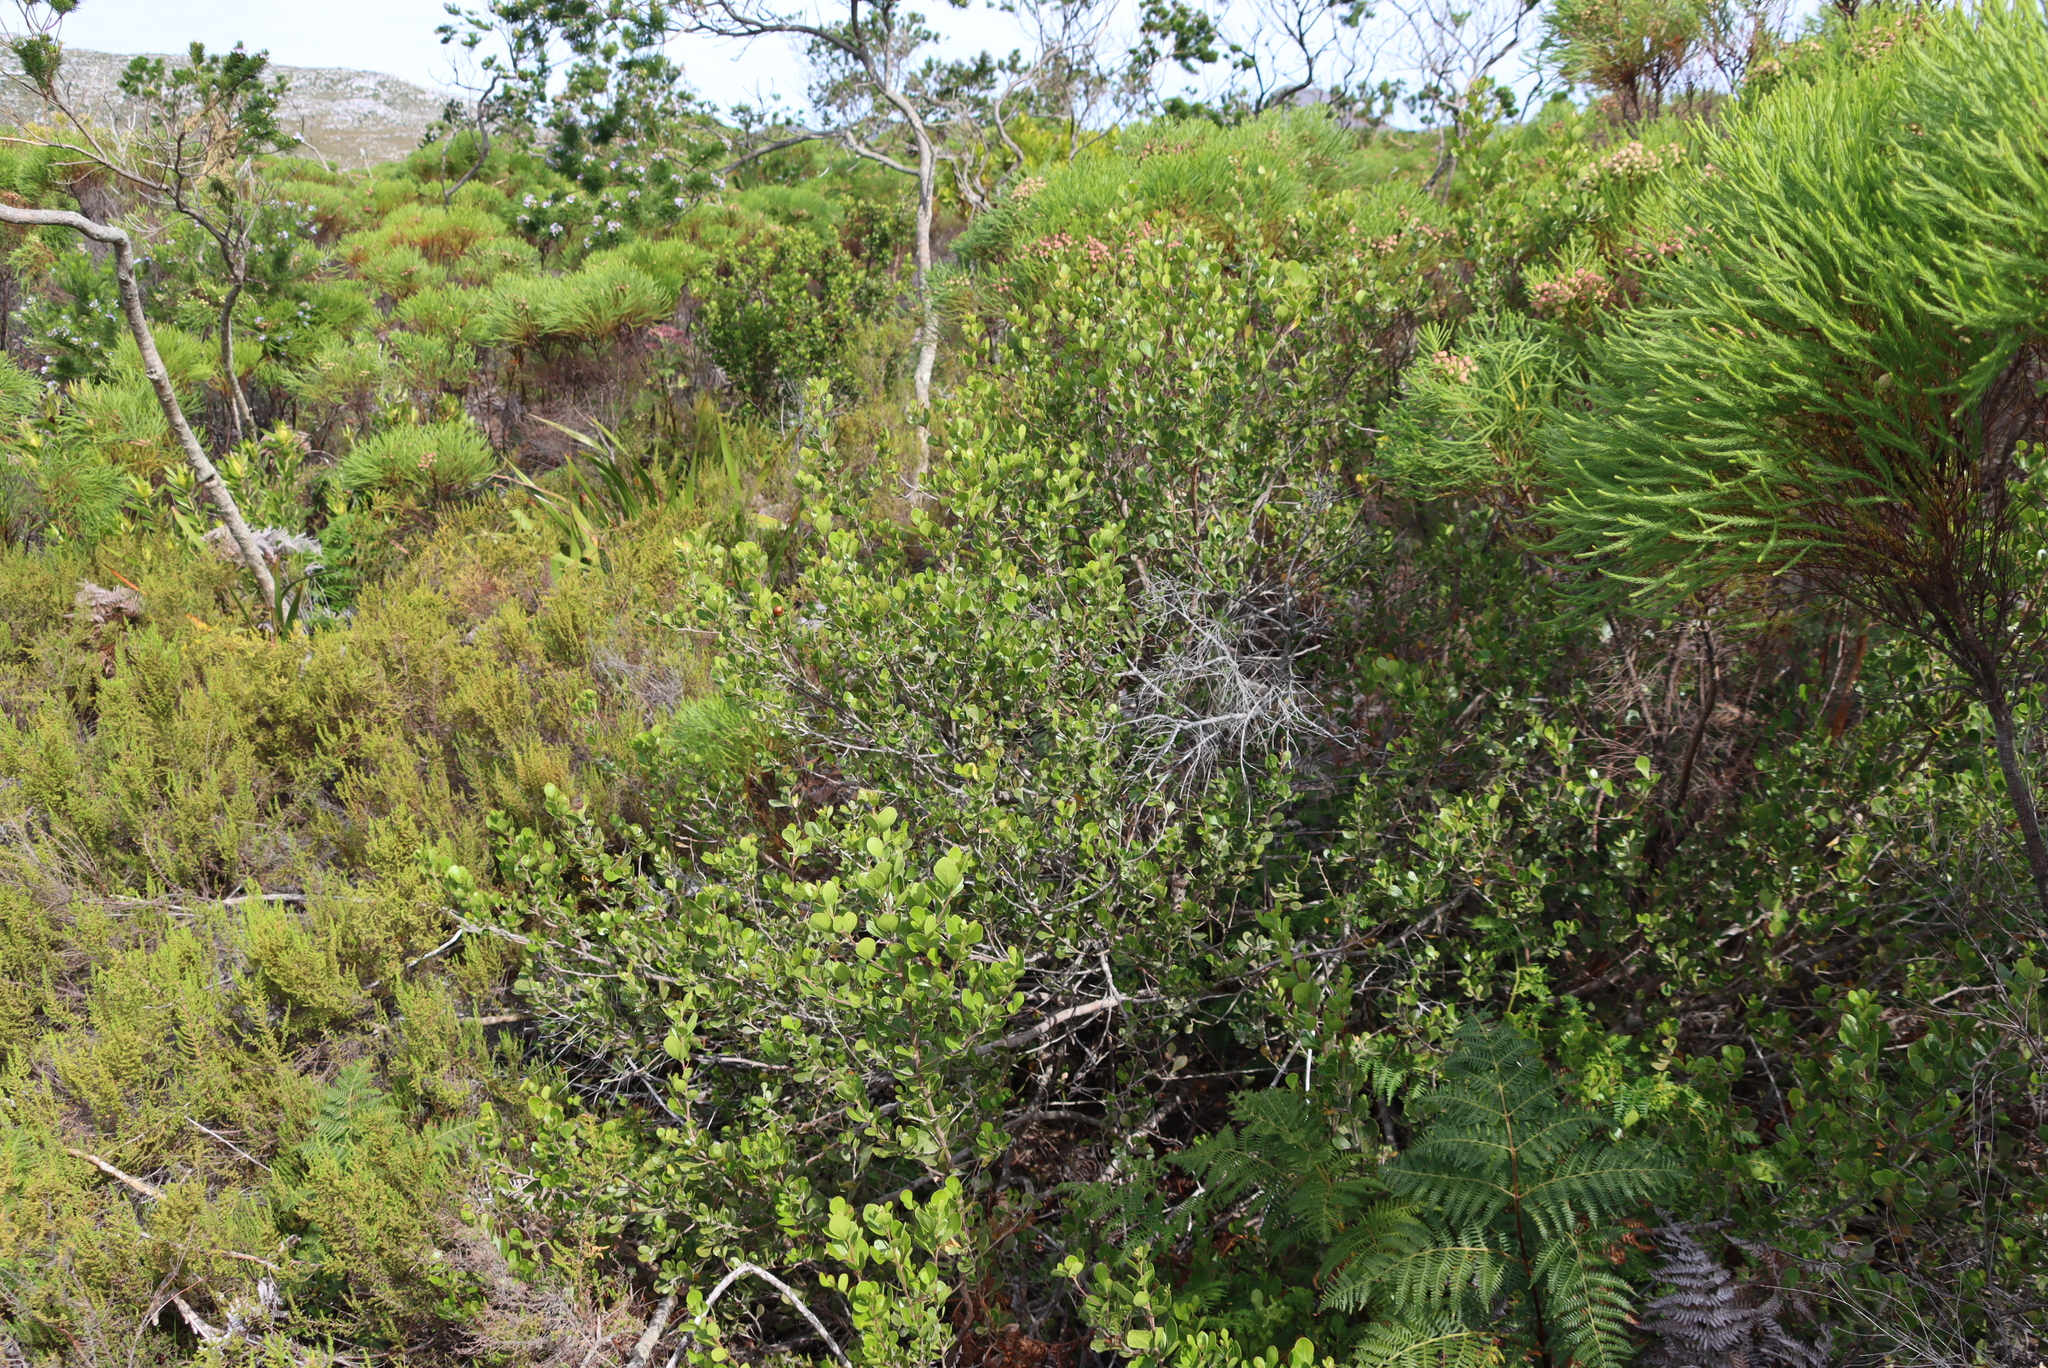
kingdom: Plantae
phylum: Tracheophyta
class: Magnoliopsida
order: Sapindales
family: Anacardiaceae
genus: Searsia
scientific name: Searsia lucida
